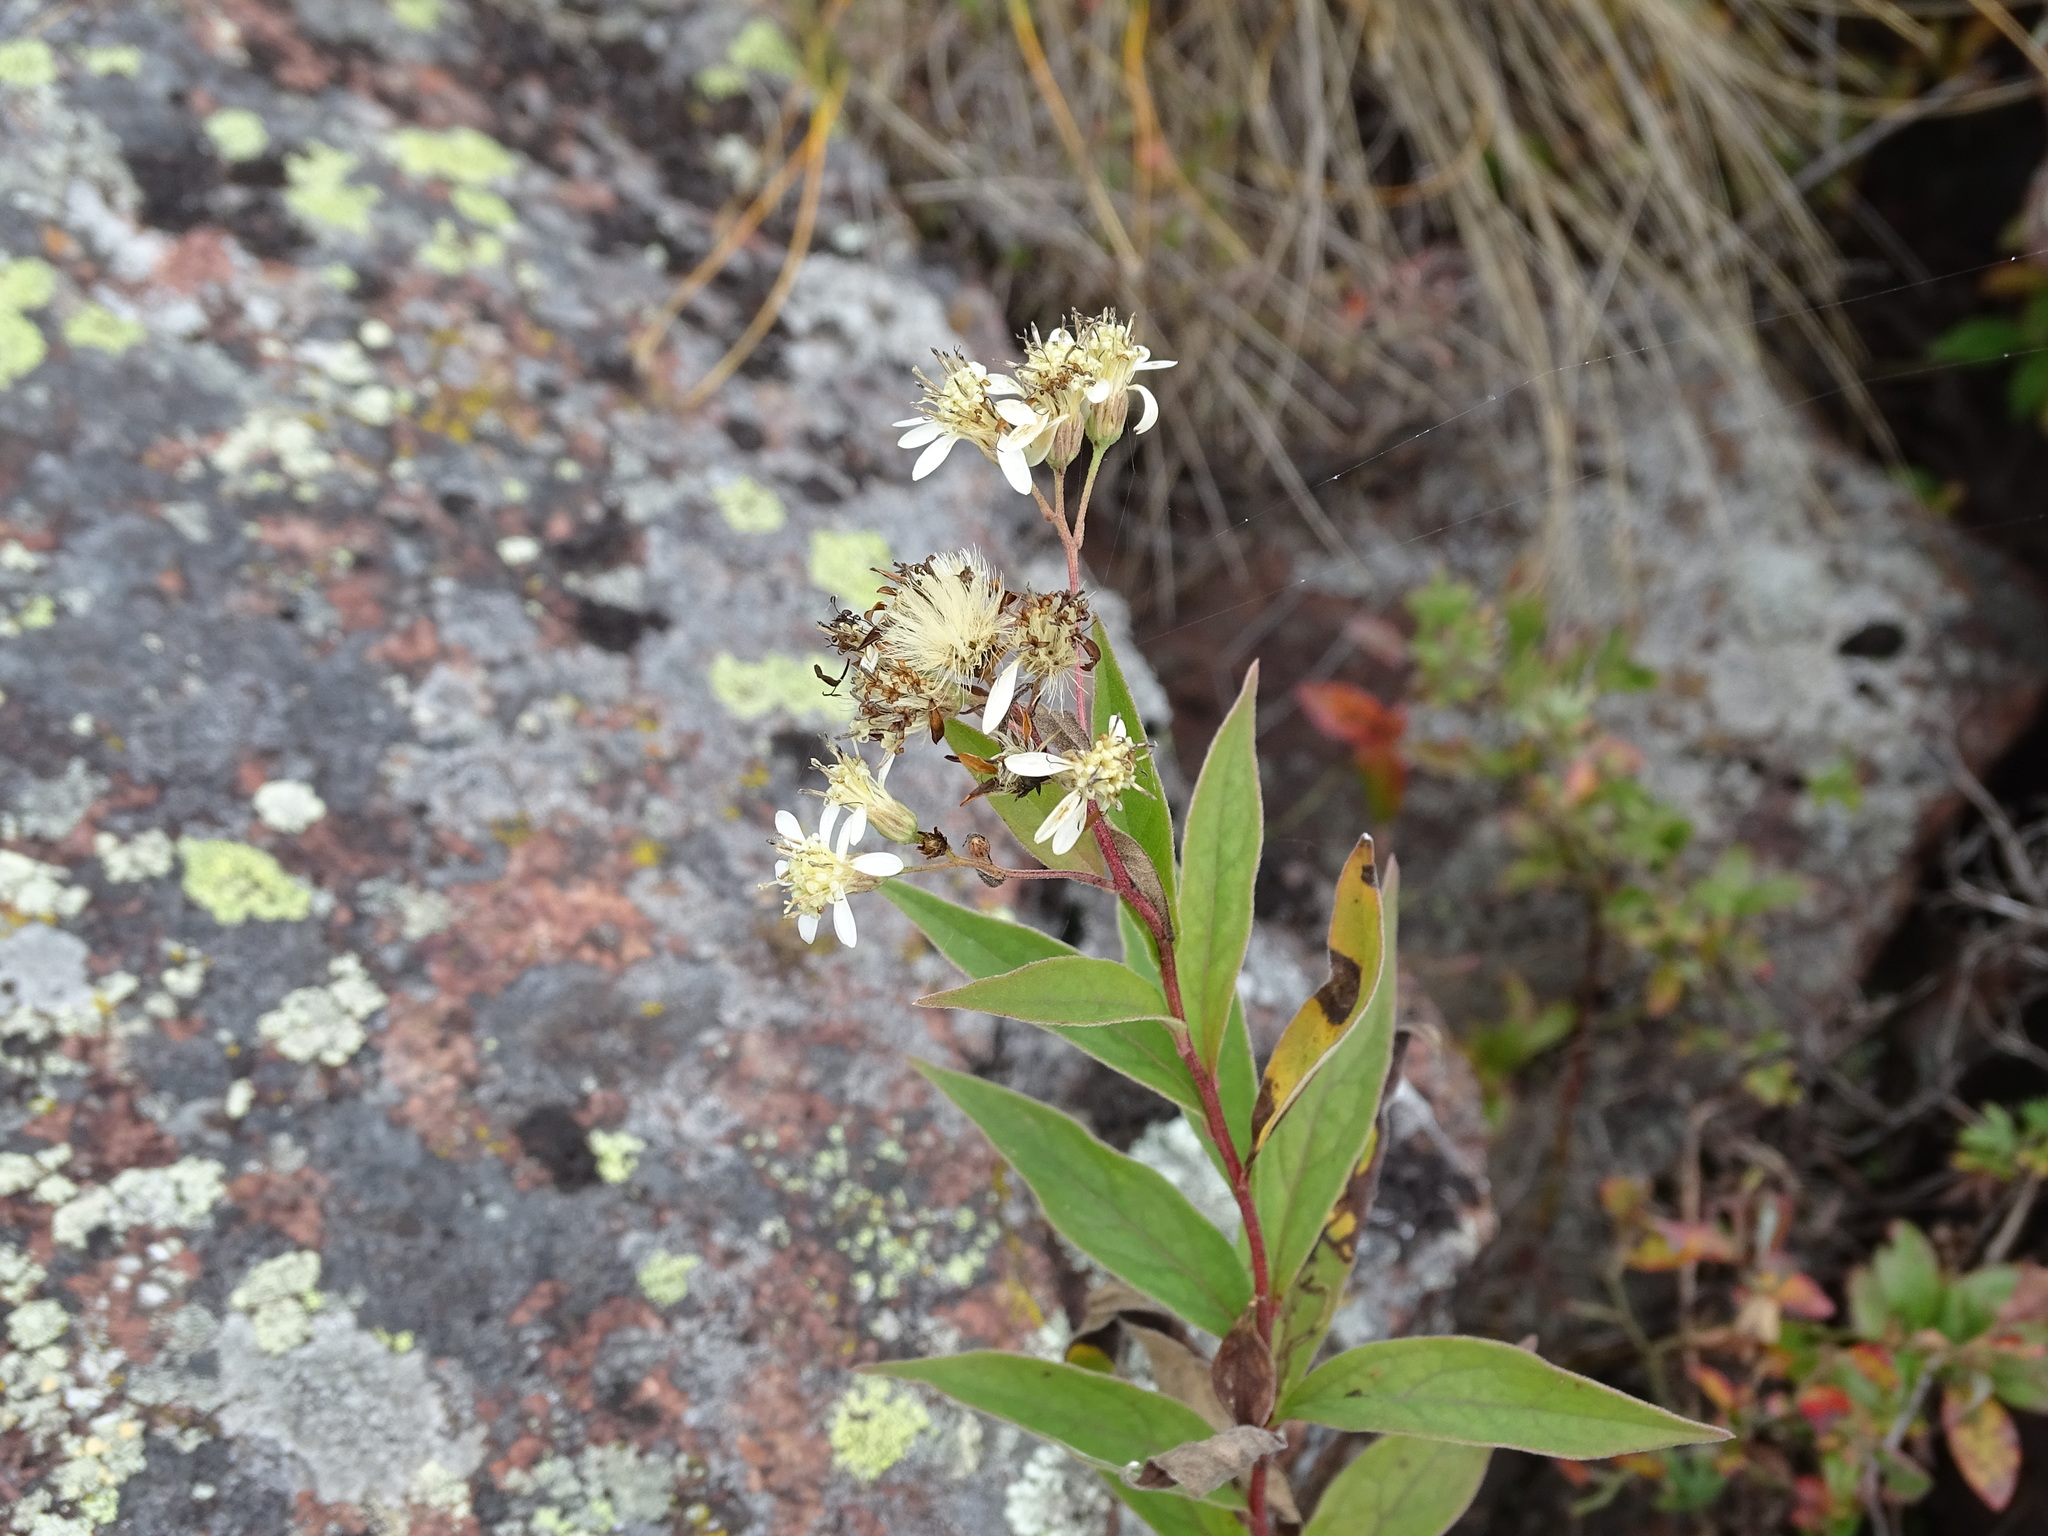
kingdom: Plantae
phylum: Tracheophyta
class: Magnoliopsida
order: Asterales
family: Asteraceae
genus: Doellingeria
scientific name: Doellingeria umbellata
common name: Flat-top white aster
